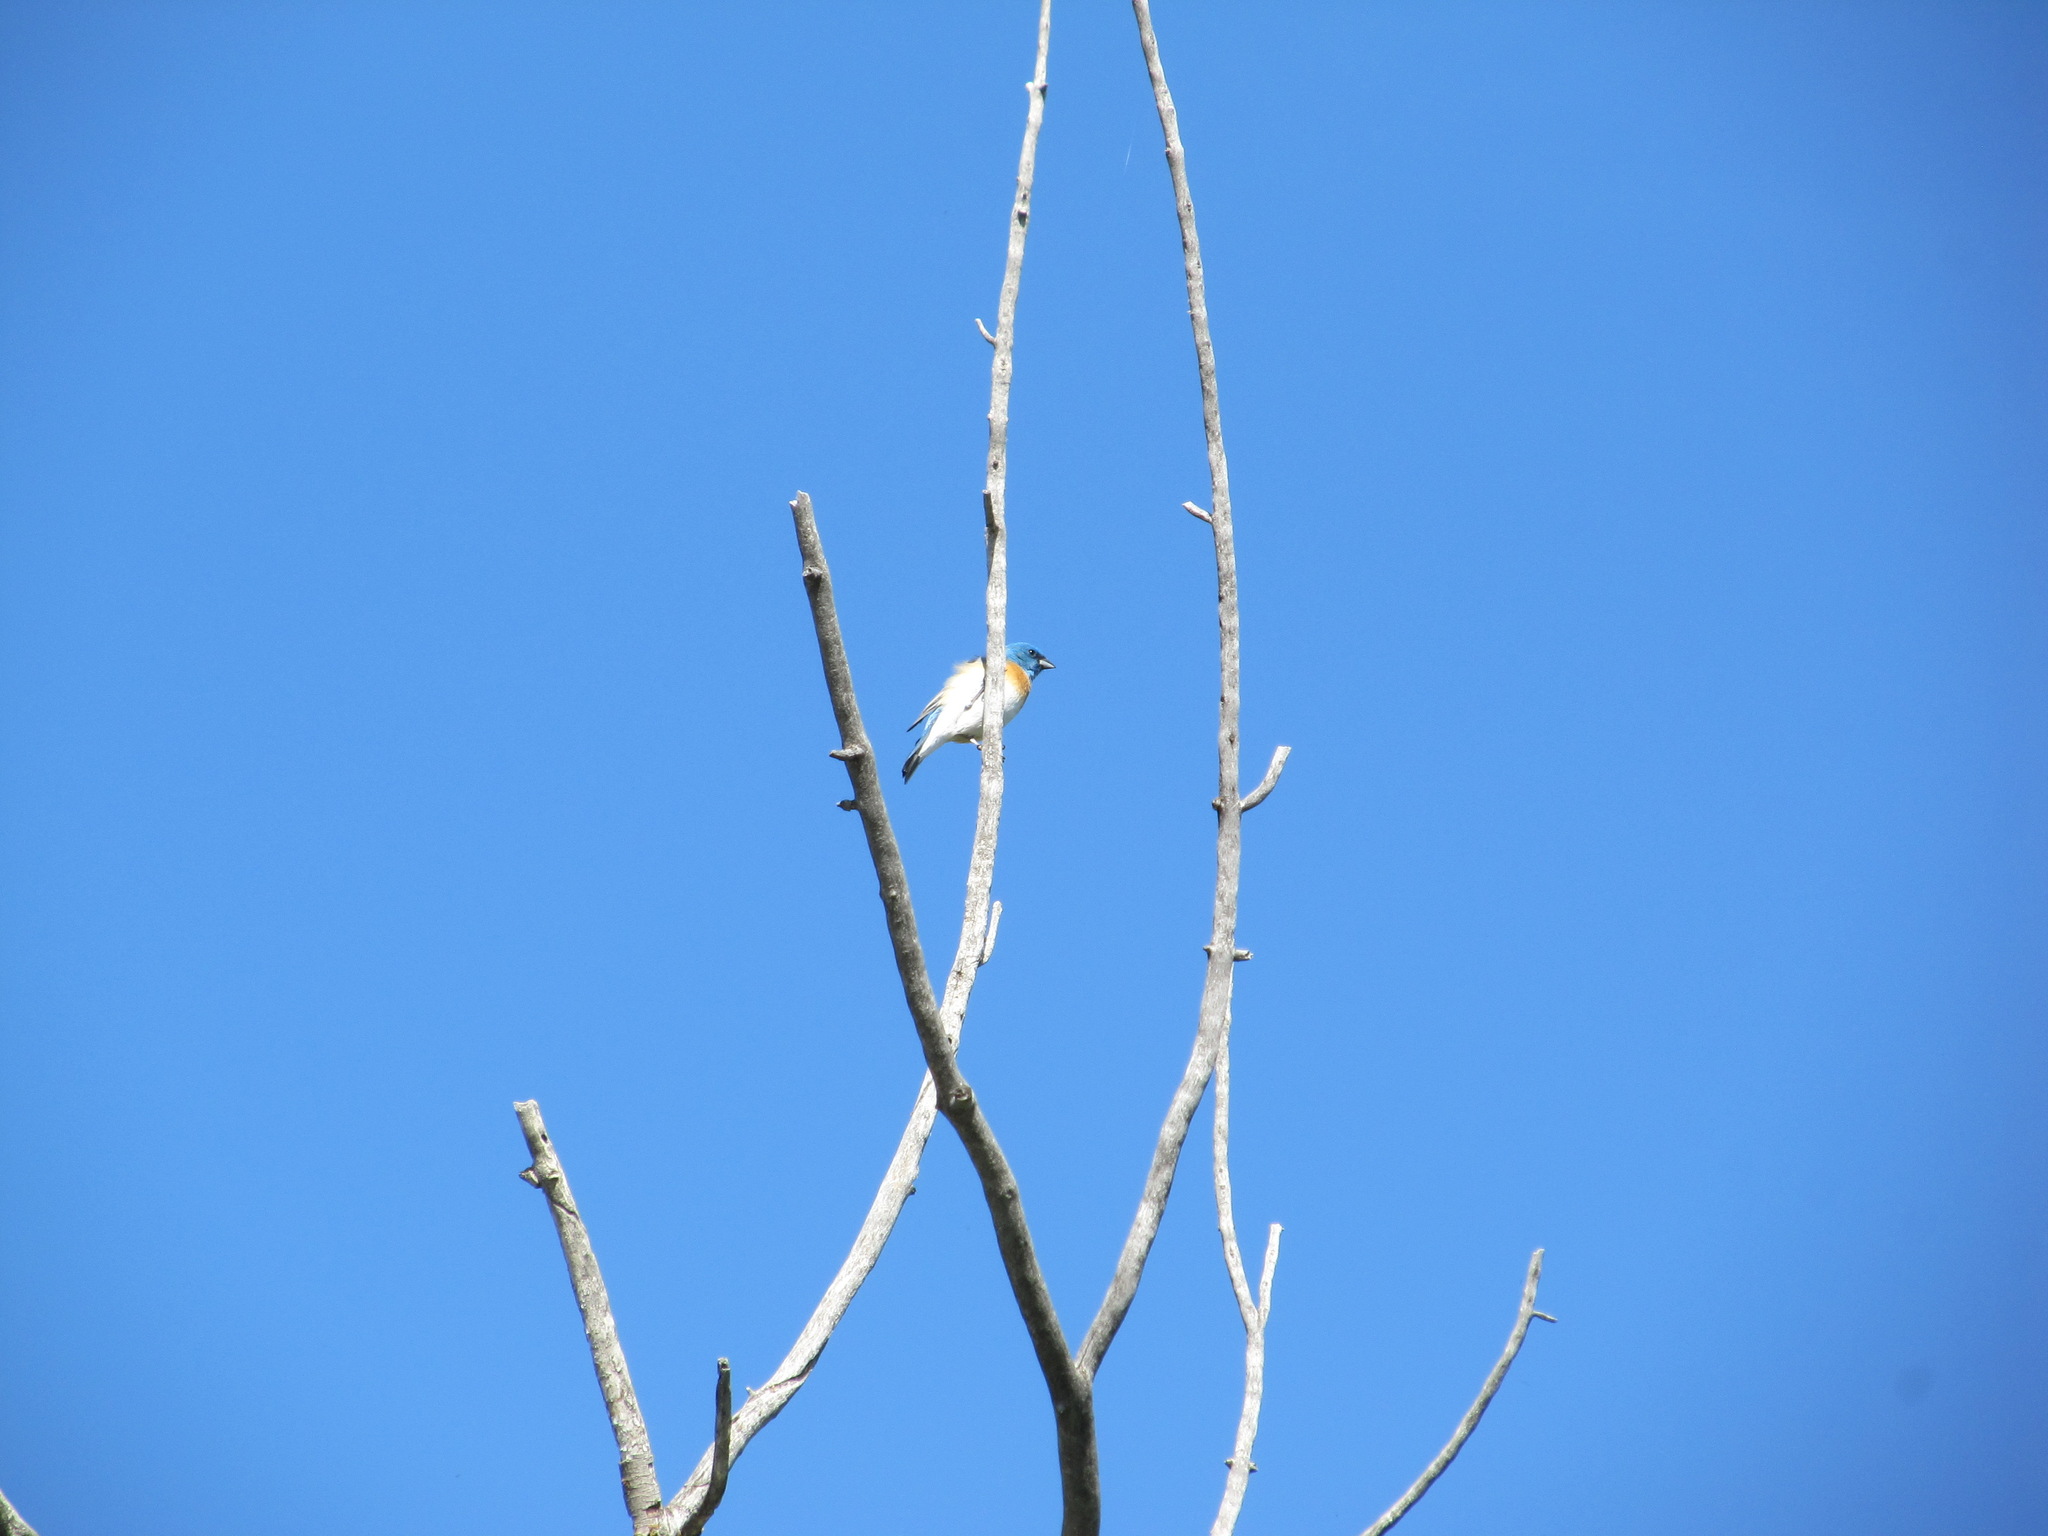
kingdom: Animalia
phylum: Chordata
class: Aves
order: Passeriformes
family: Cardinalidae
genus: Passerina
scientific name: Passerina amoena
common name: Lazuli bunting
